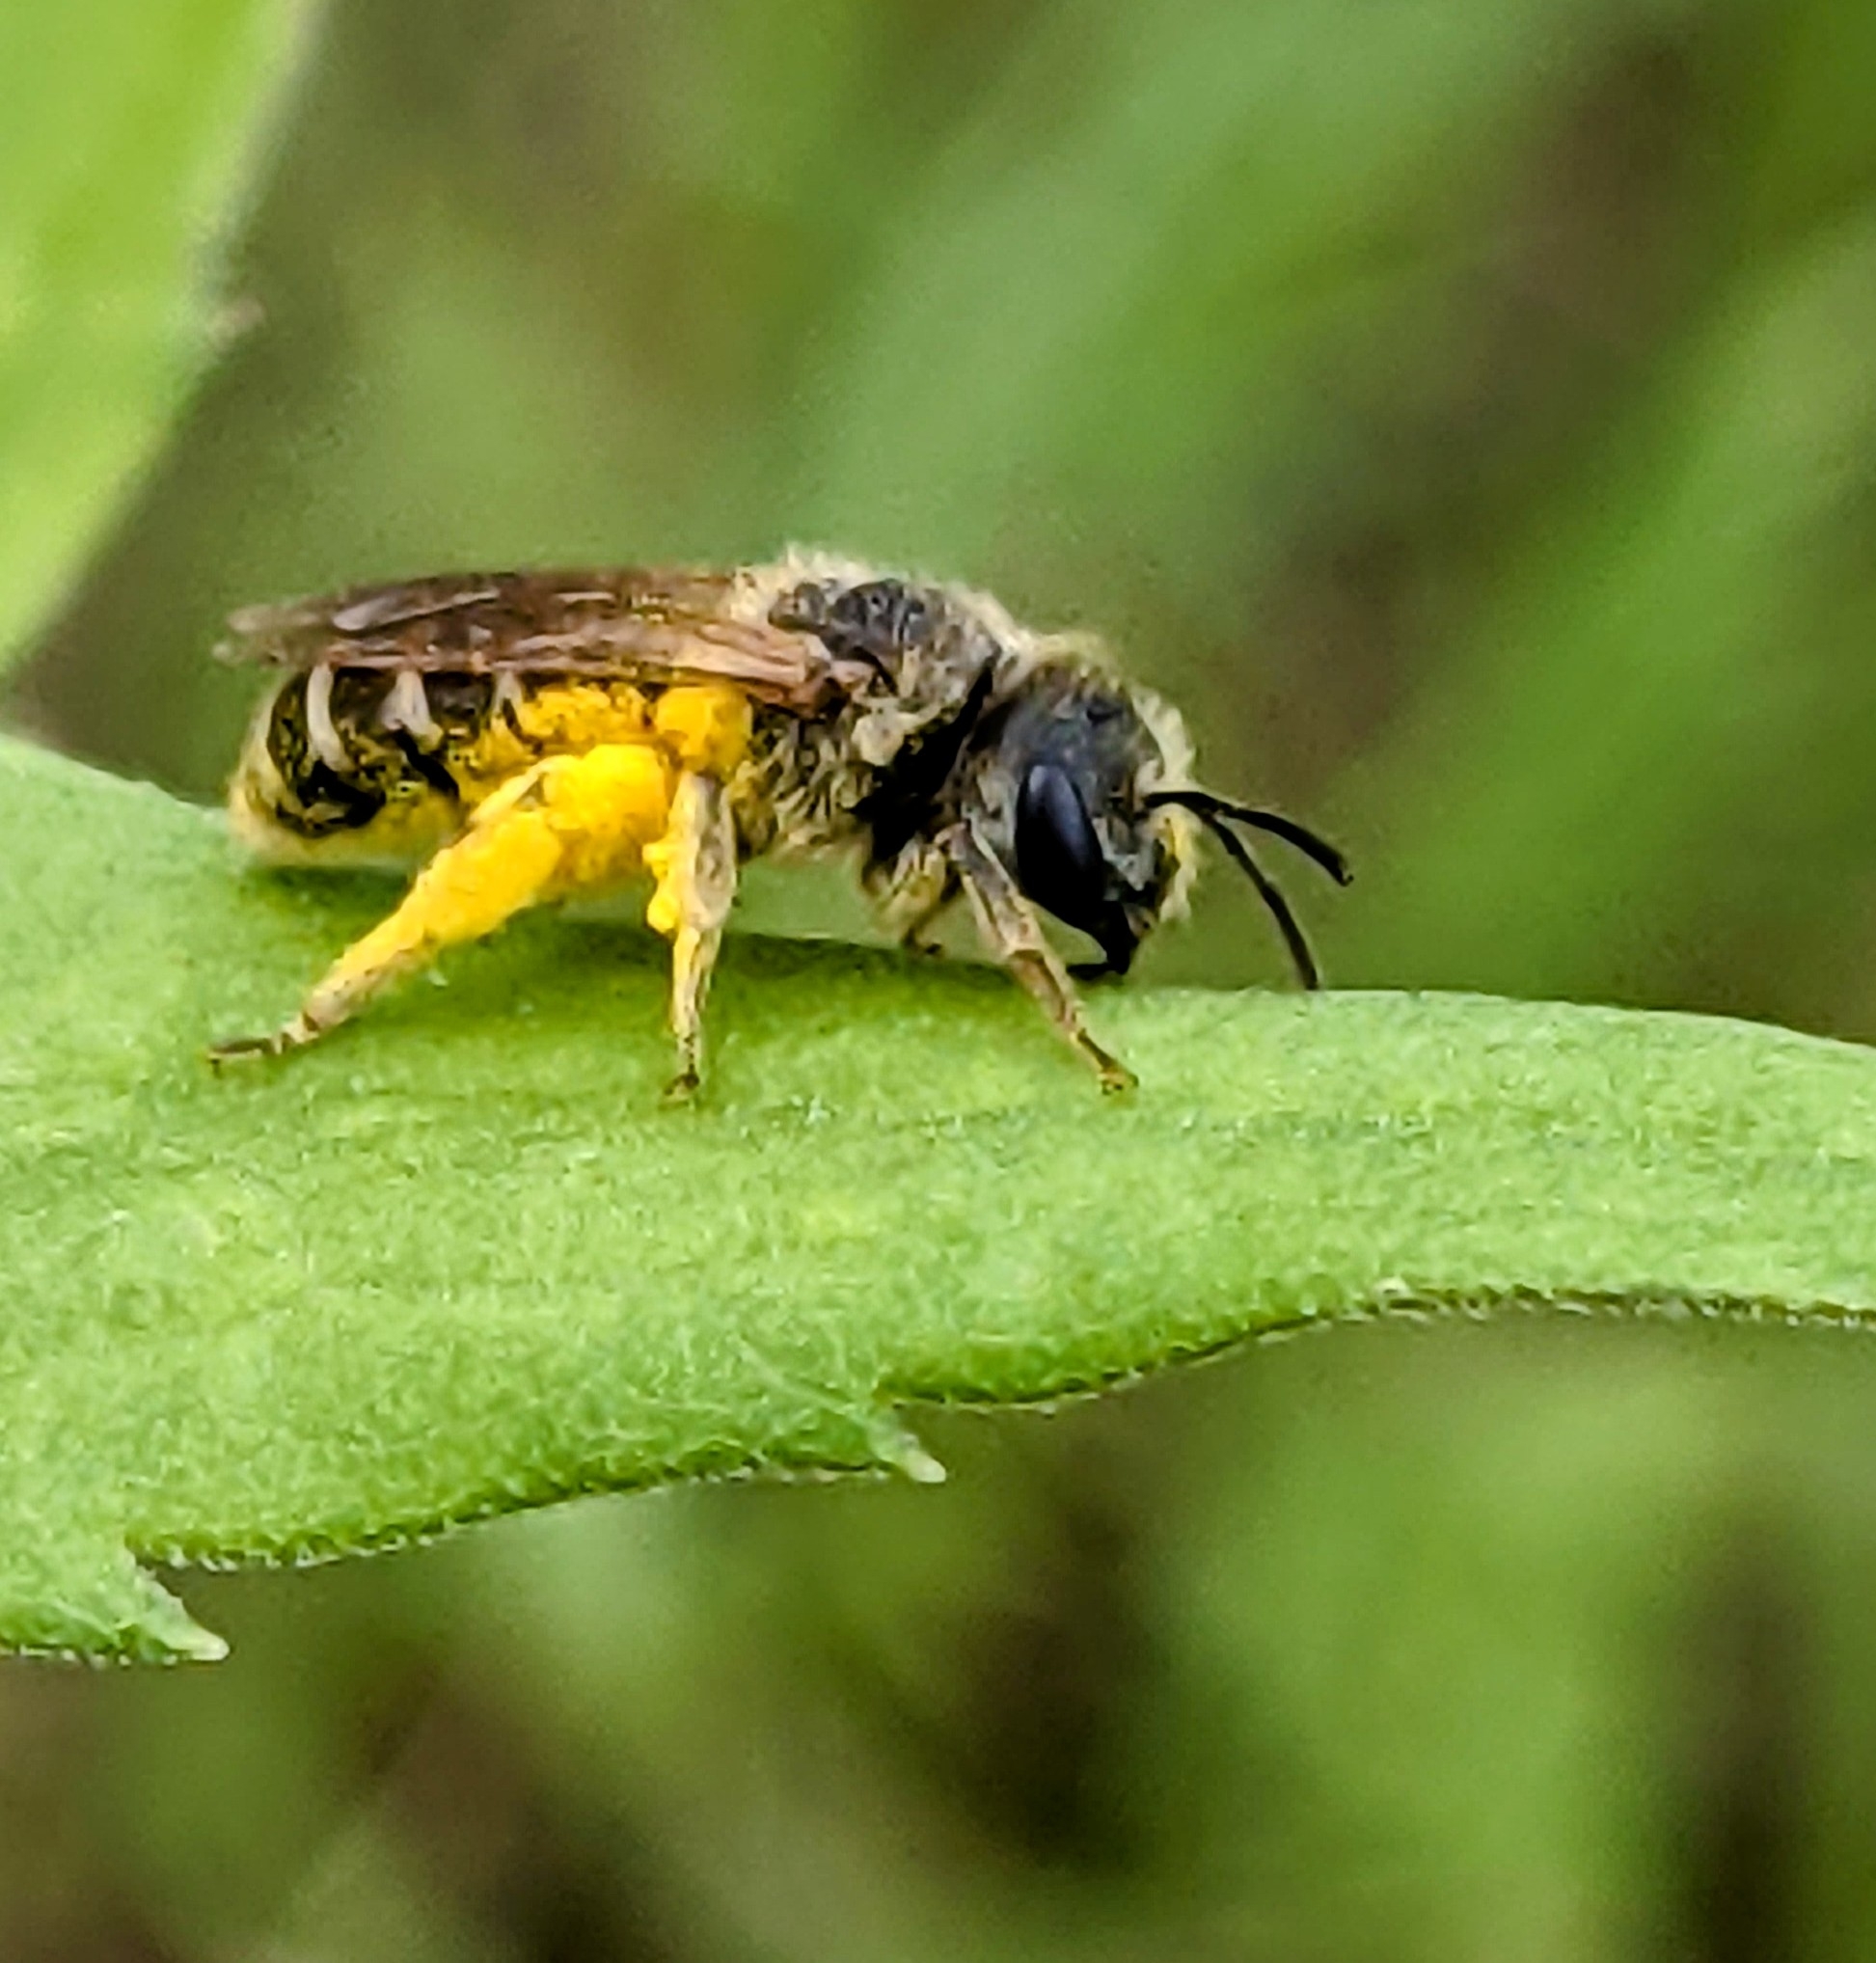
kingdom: Animalia
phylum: Arthropoda
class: Insecta
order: Hymenoptera
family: Halictidae
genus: Halictus
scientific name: Halictus ligatus
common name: Ligated furrow bee
